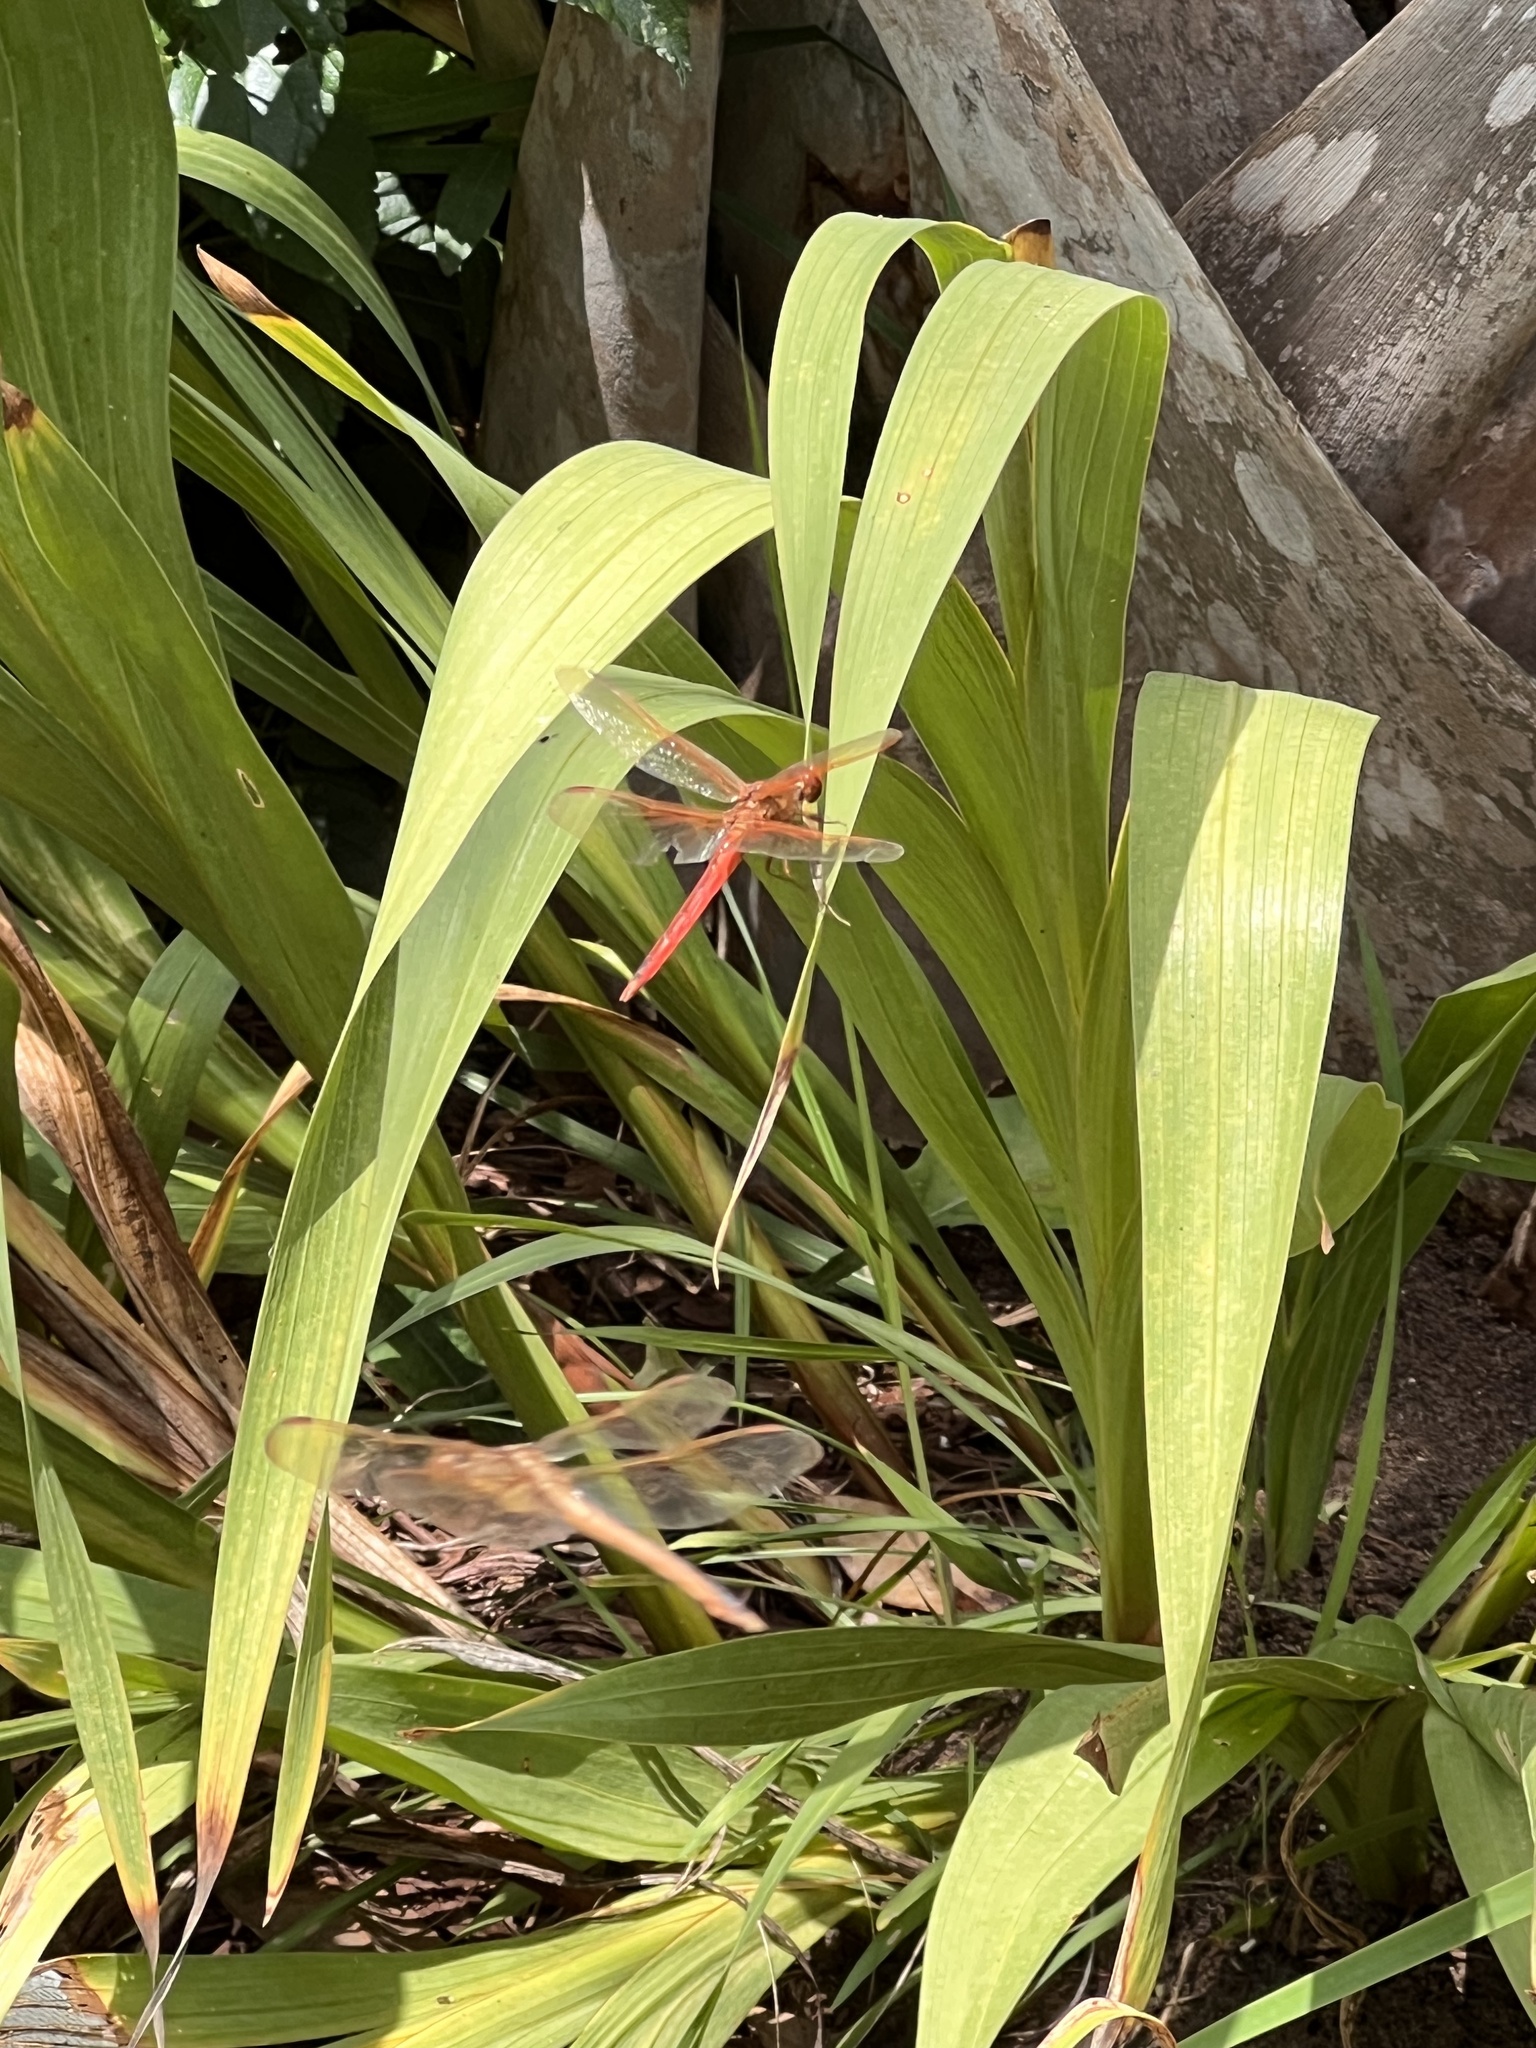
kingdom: Animalia
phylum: Arthropoda
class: Insecta
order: Odonata
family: Libellulidae
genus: Libellula
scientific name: Libellula needhami
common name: Needham's skimmer
